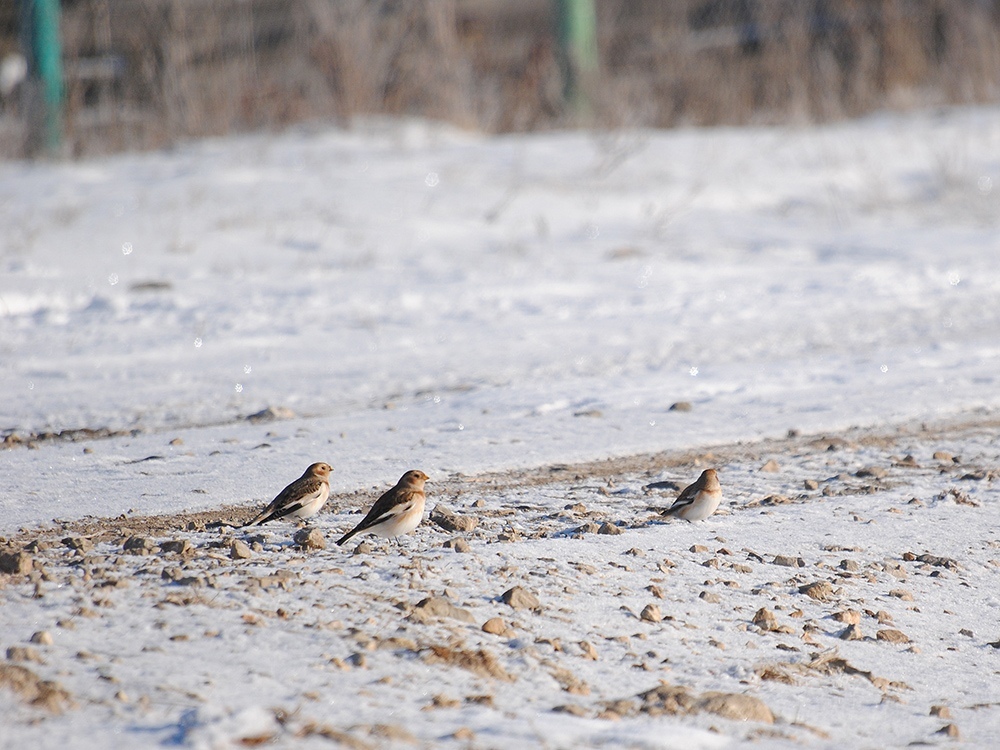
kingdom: Animalia
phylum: Chordata
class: Aves
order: Passeriformes
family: Calcariidae
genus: Plectrophenax
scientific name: Plectrophenax nivalis
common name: Snow bunting
